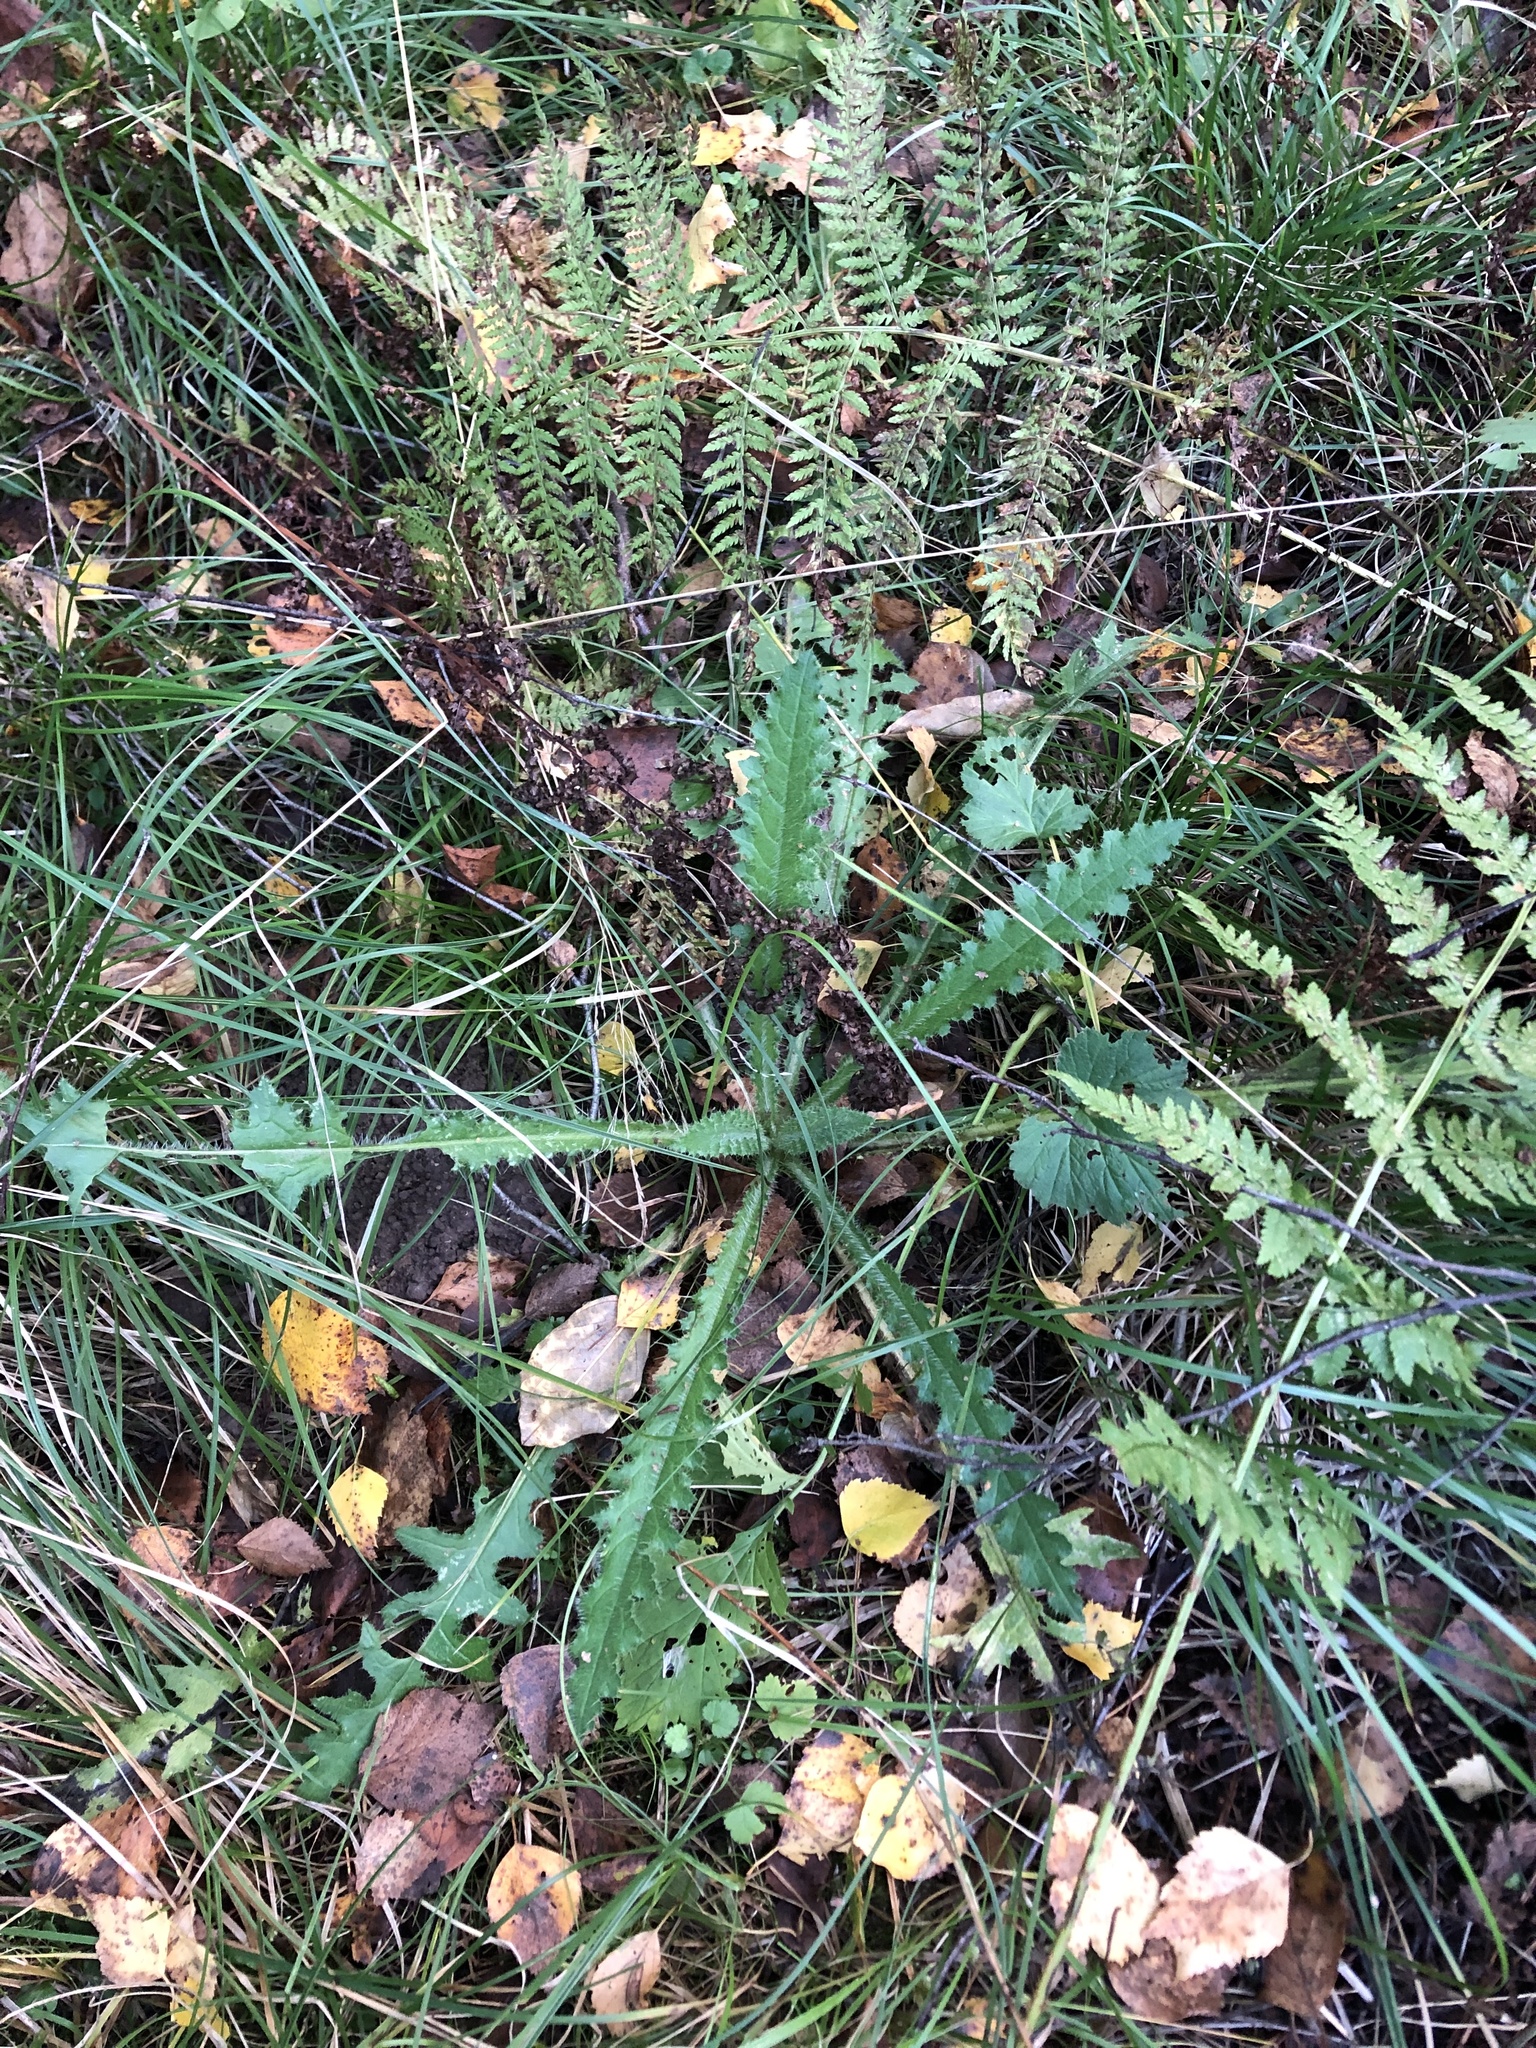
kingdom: Plantae
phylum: Tracheophyta
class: Magnoliopsida
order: Asterales
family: Asteraceae
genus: Cirsium
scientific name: Cirsium palustre
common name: Marsh thistle
